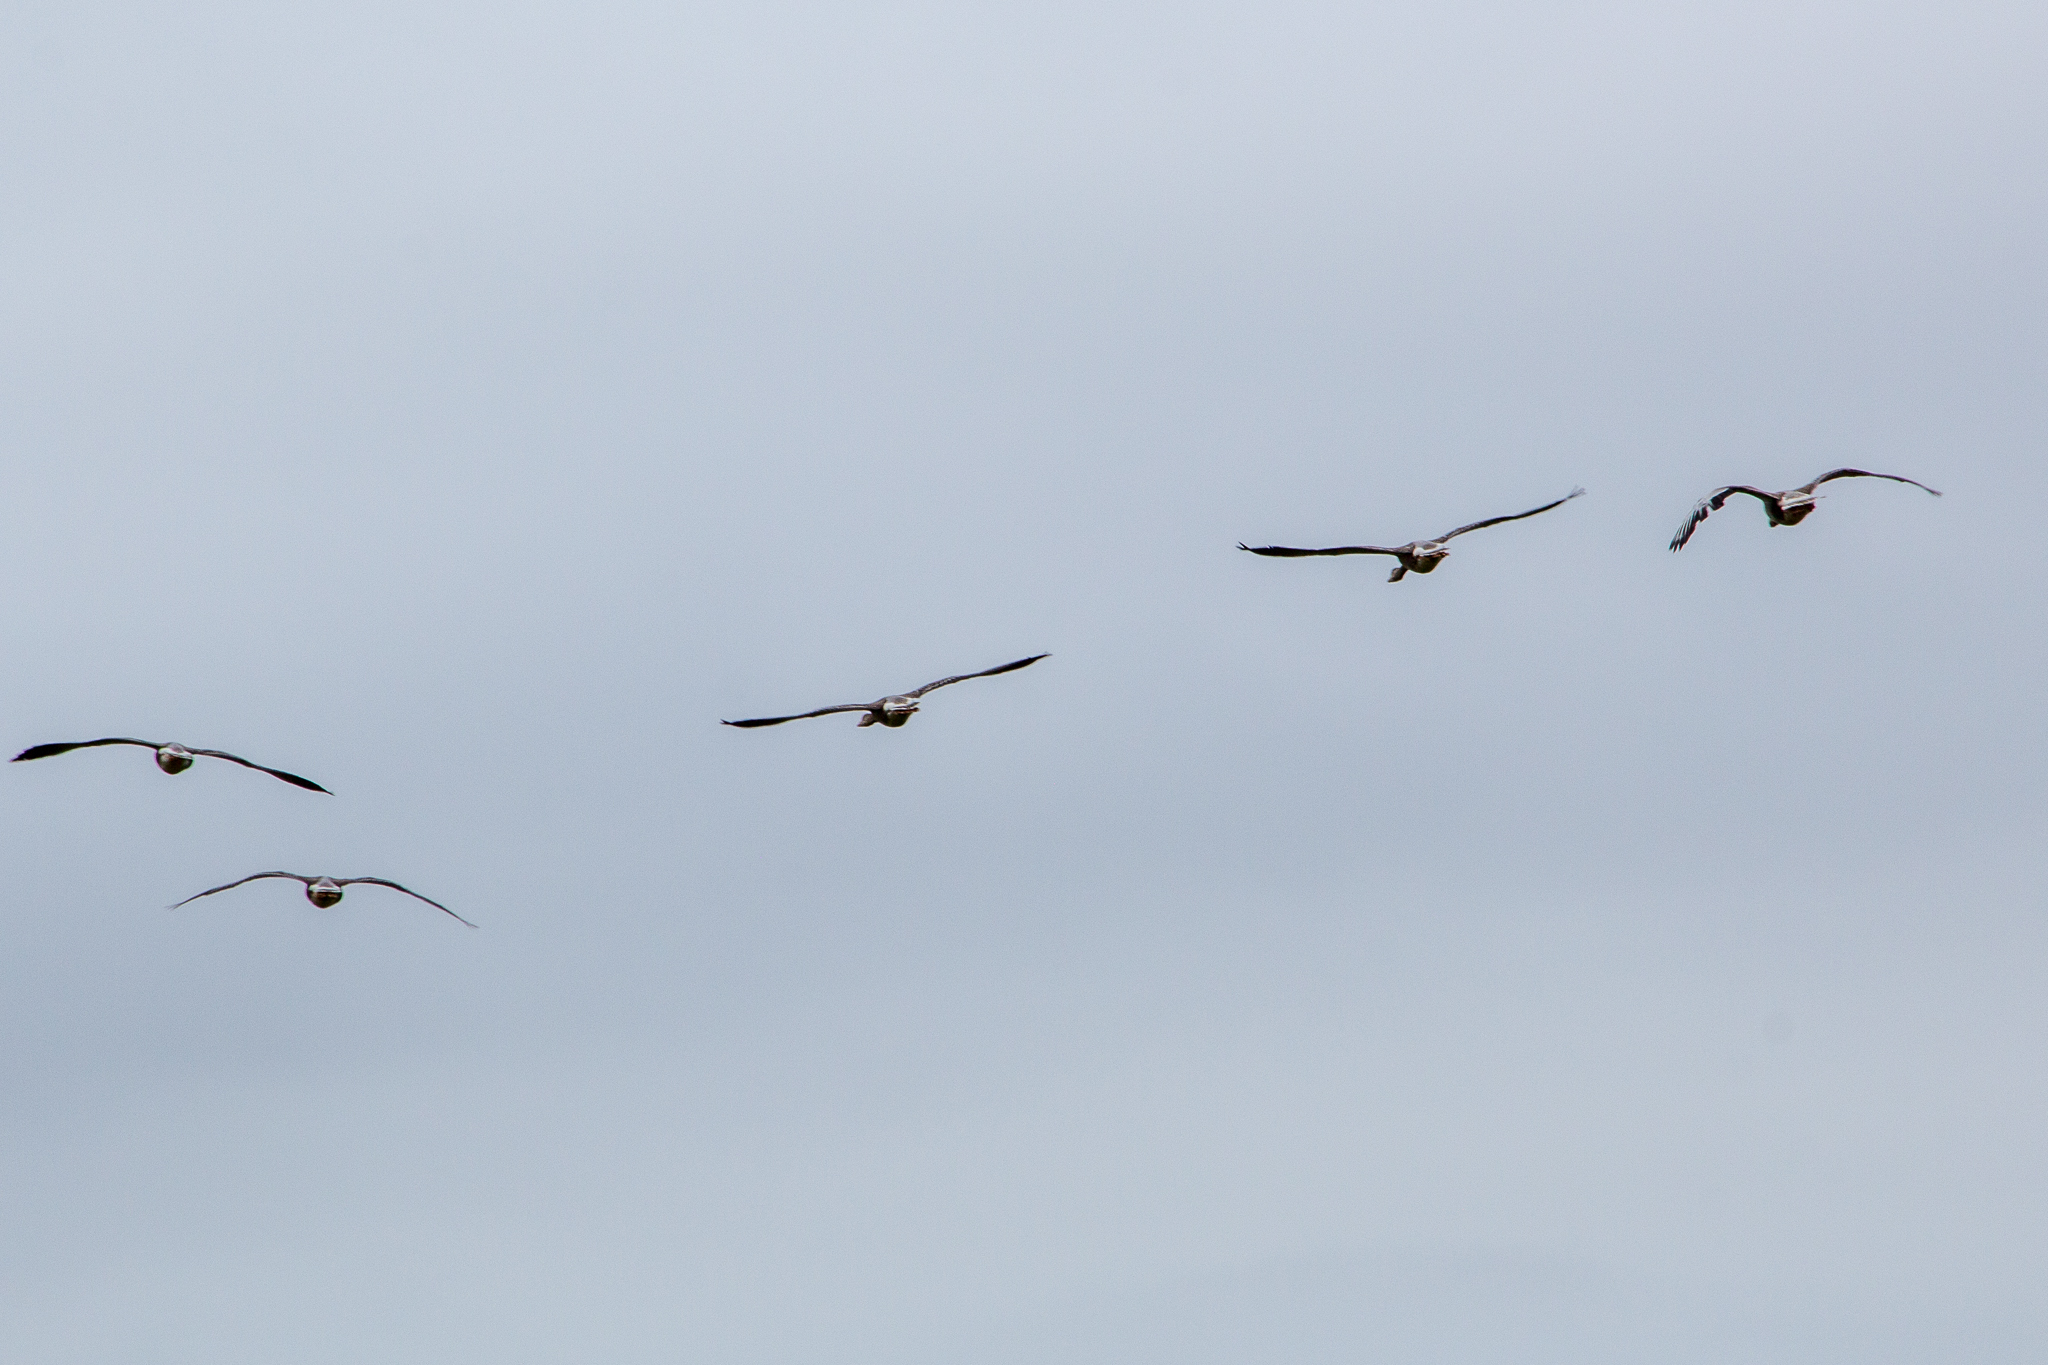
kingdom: Animalia
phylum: Chordata
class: Aves
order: Anseriformes
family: Anatidae
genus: Anser
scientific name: Anser anser
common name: Greylag goose
